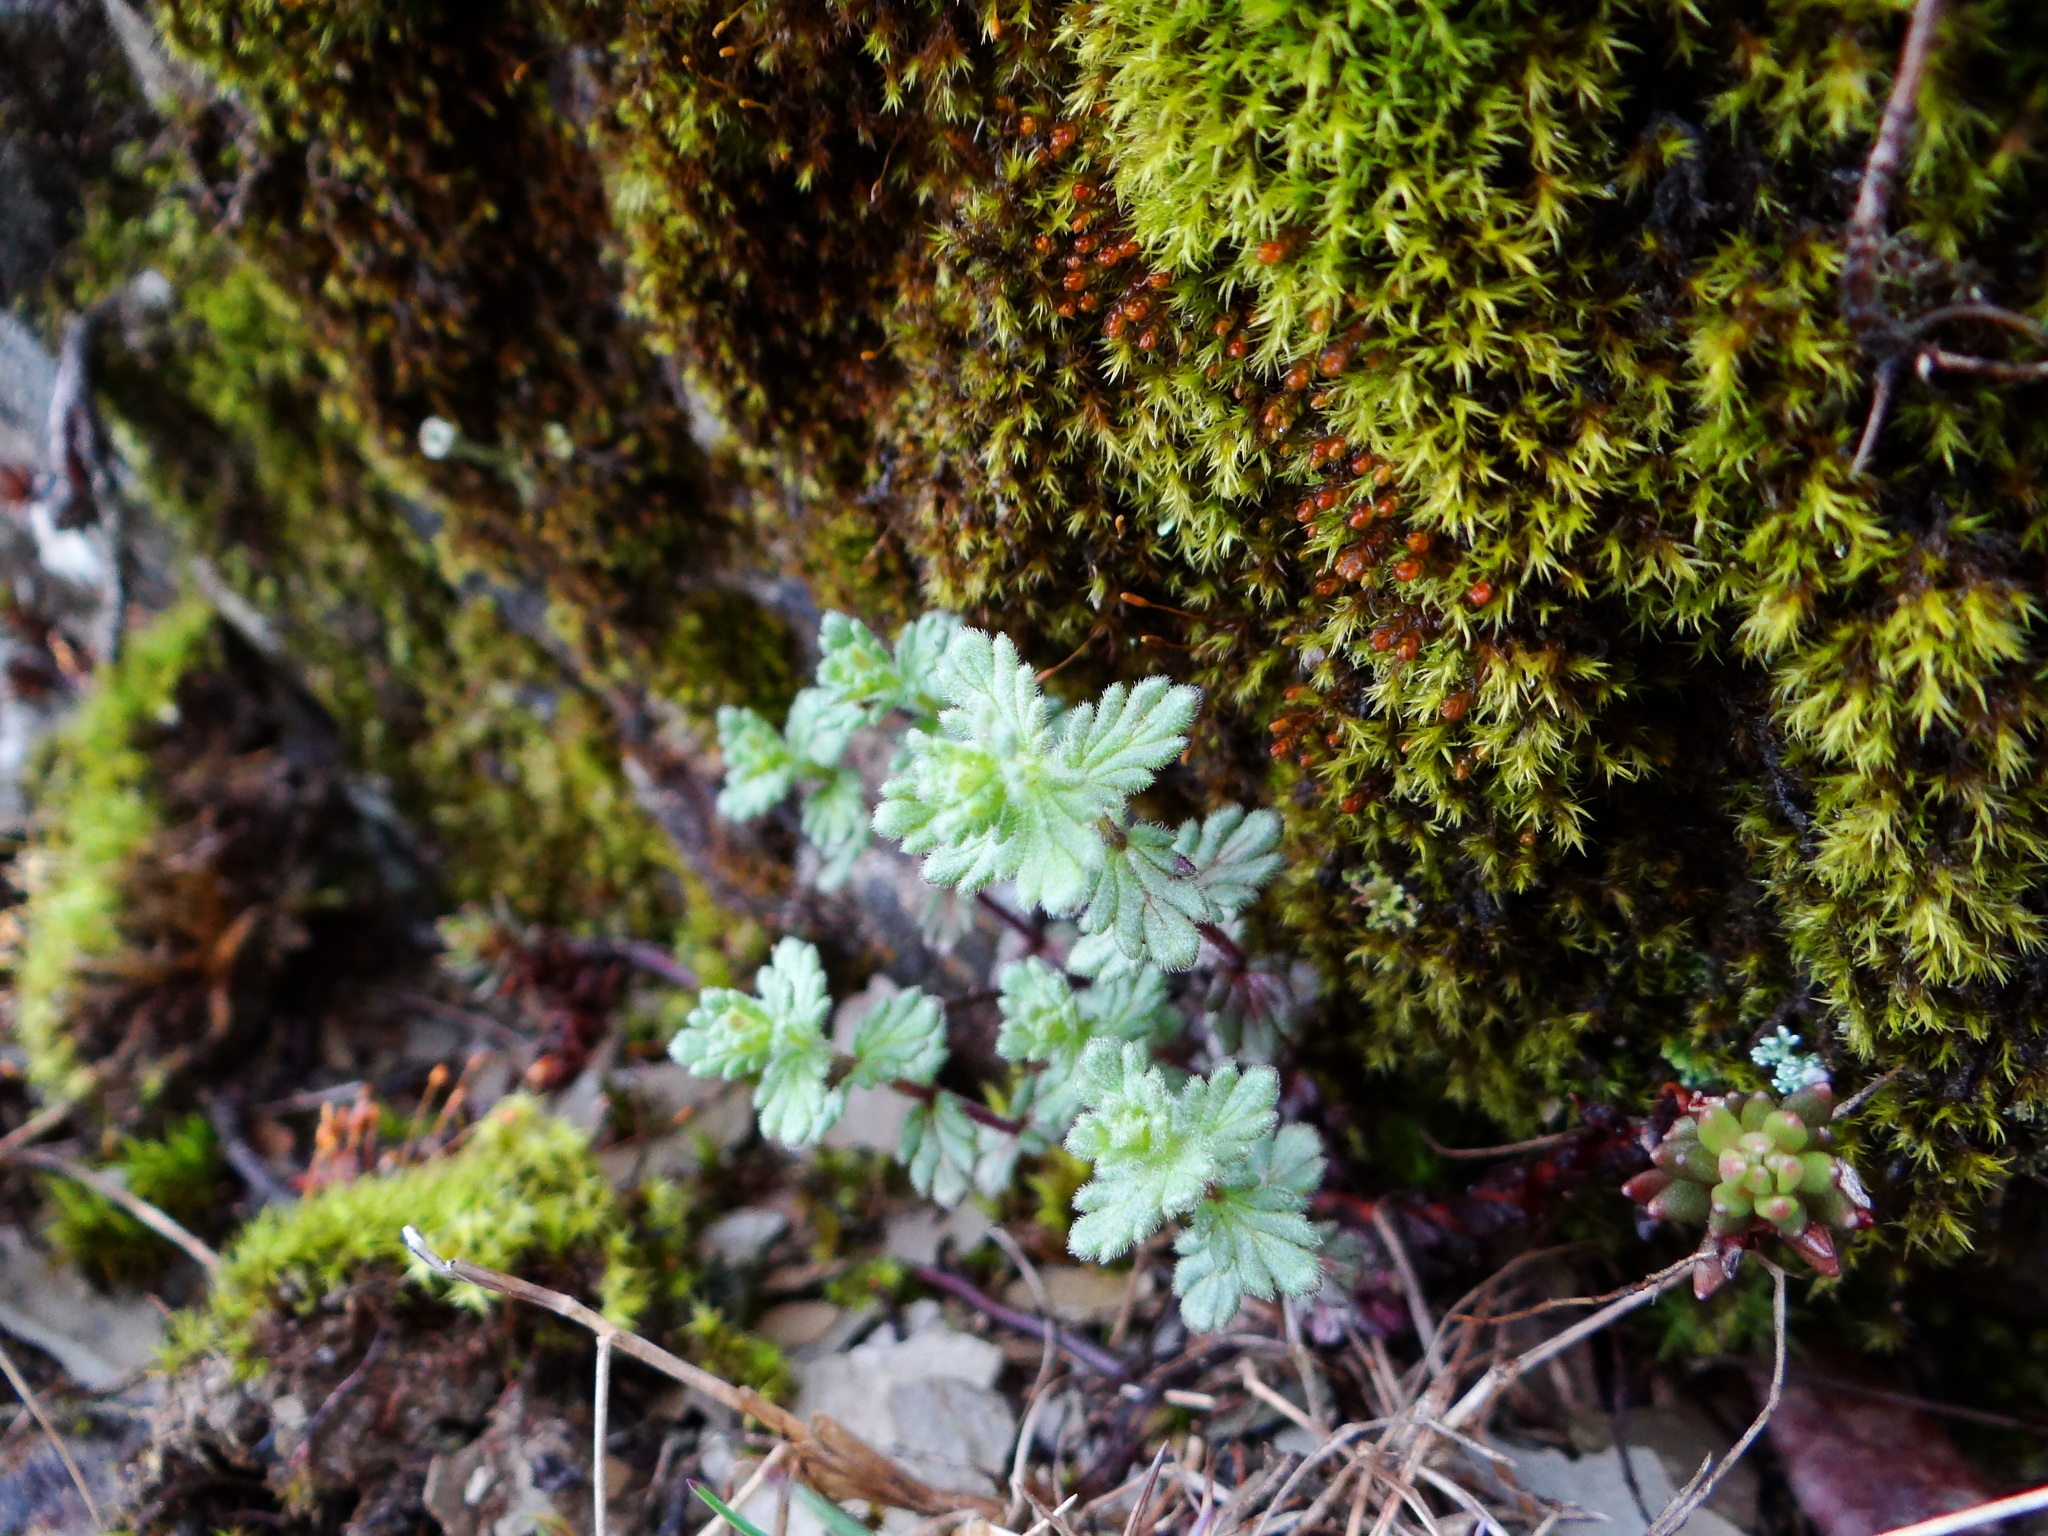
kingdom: Plantae
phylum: Tracheophyta
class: Magnoliopsida
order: Lamiales
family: Orobanchaceae
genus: Euphrasia
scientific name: Euphrasia nankotaizanensis
